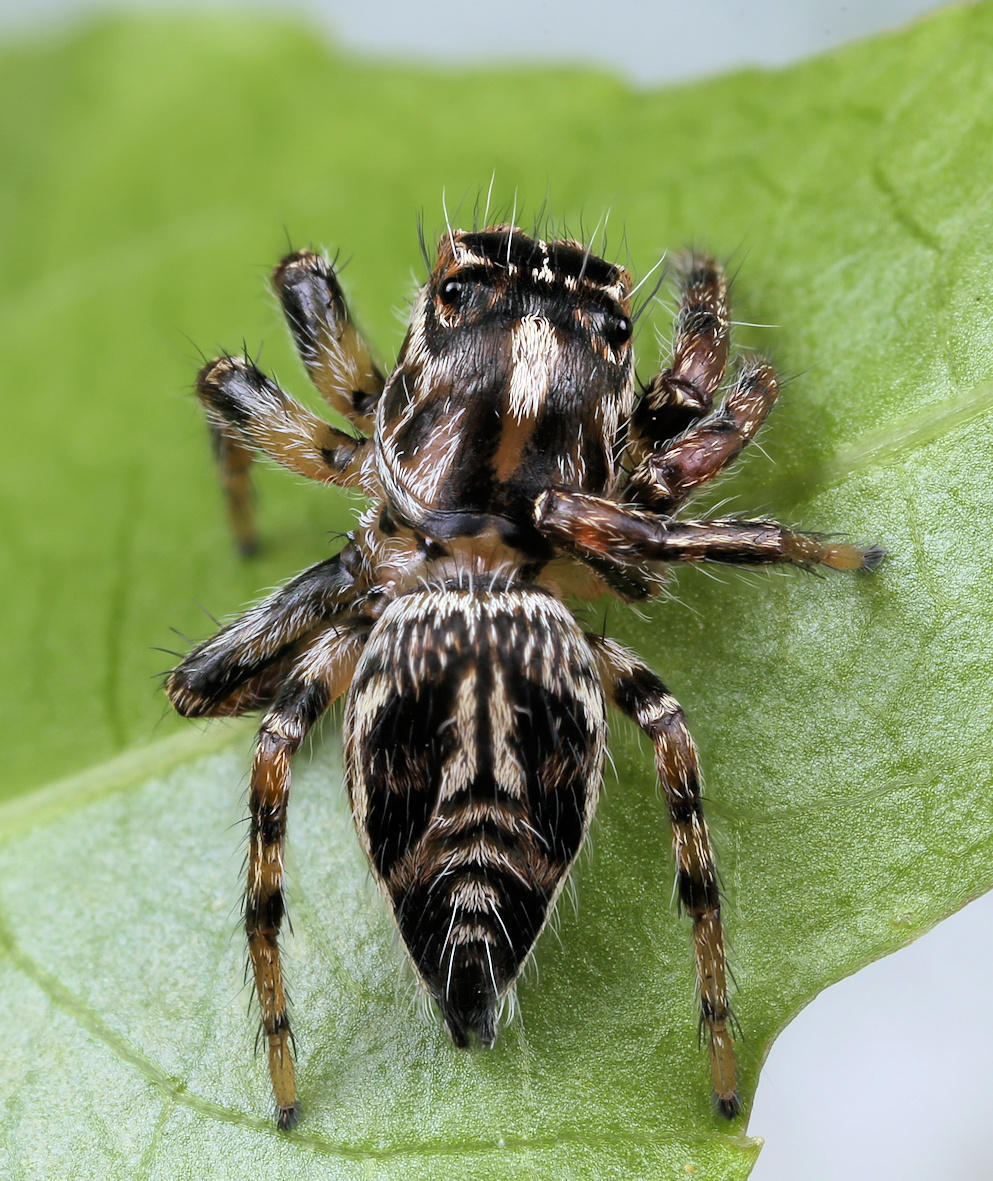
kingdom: Animalia
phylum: Arthropoda
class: Arachnida
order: Araneae
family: Salticidae
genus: Hyllus
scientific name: Hyllus argyrotoxus
